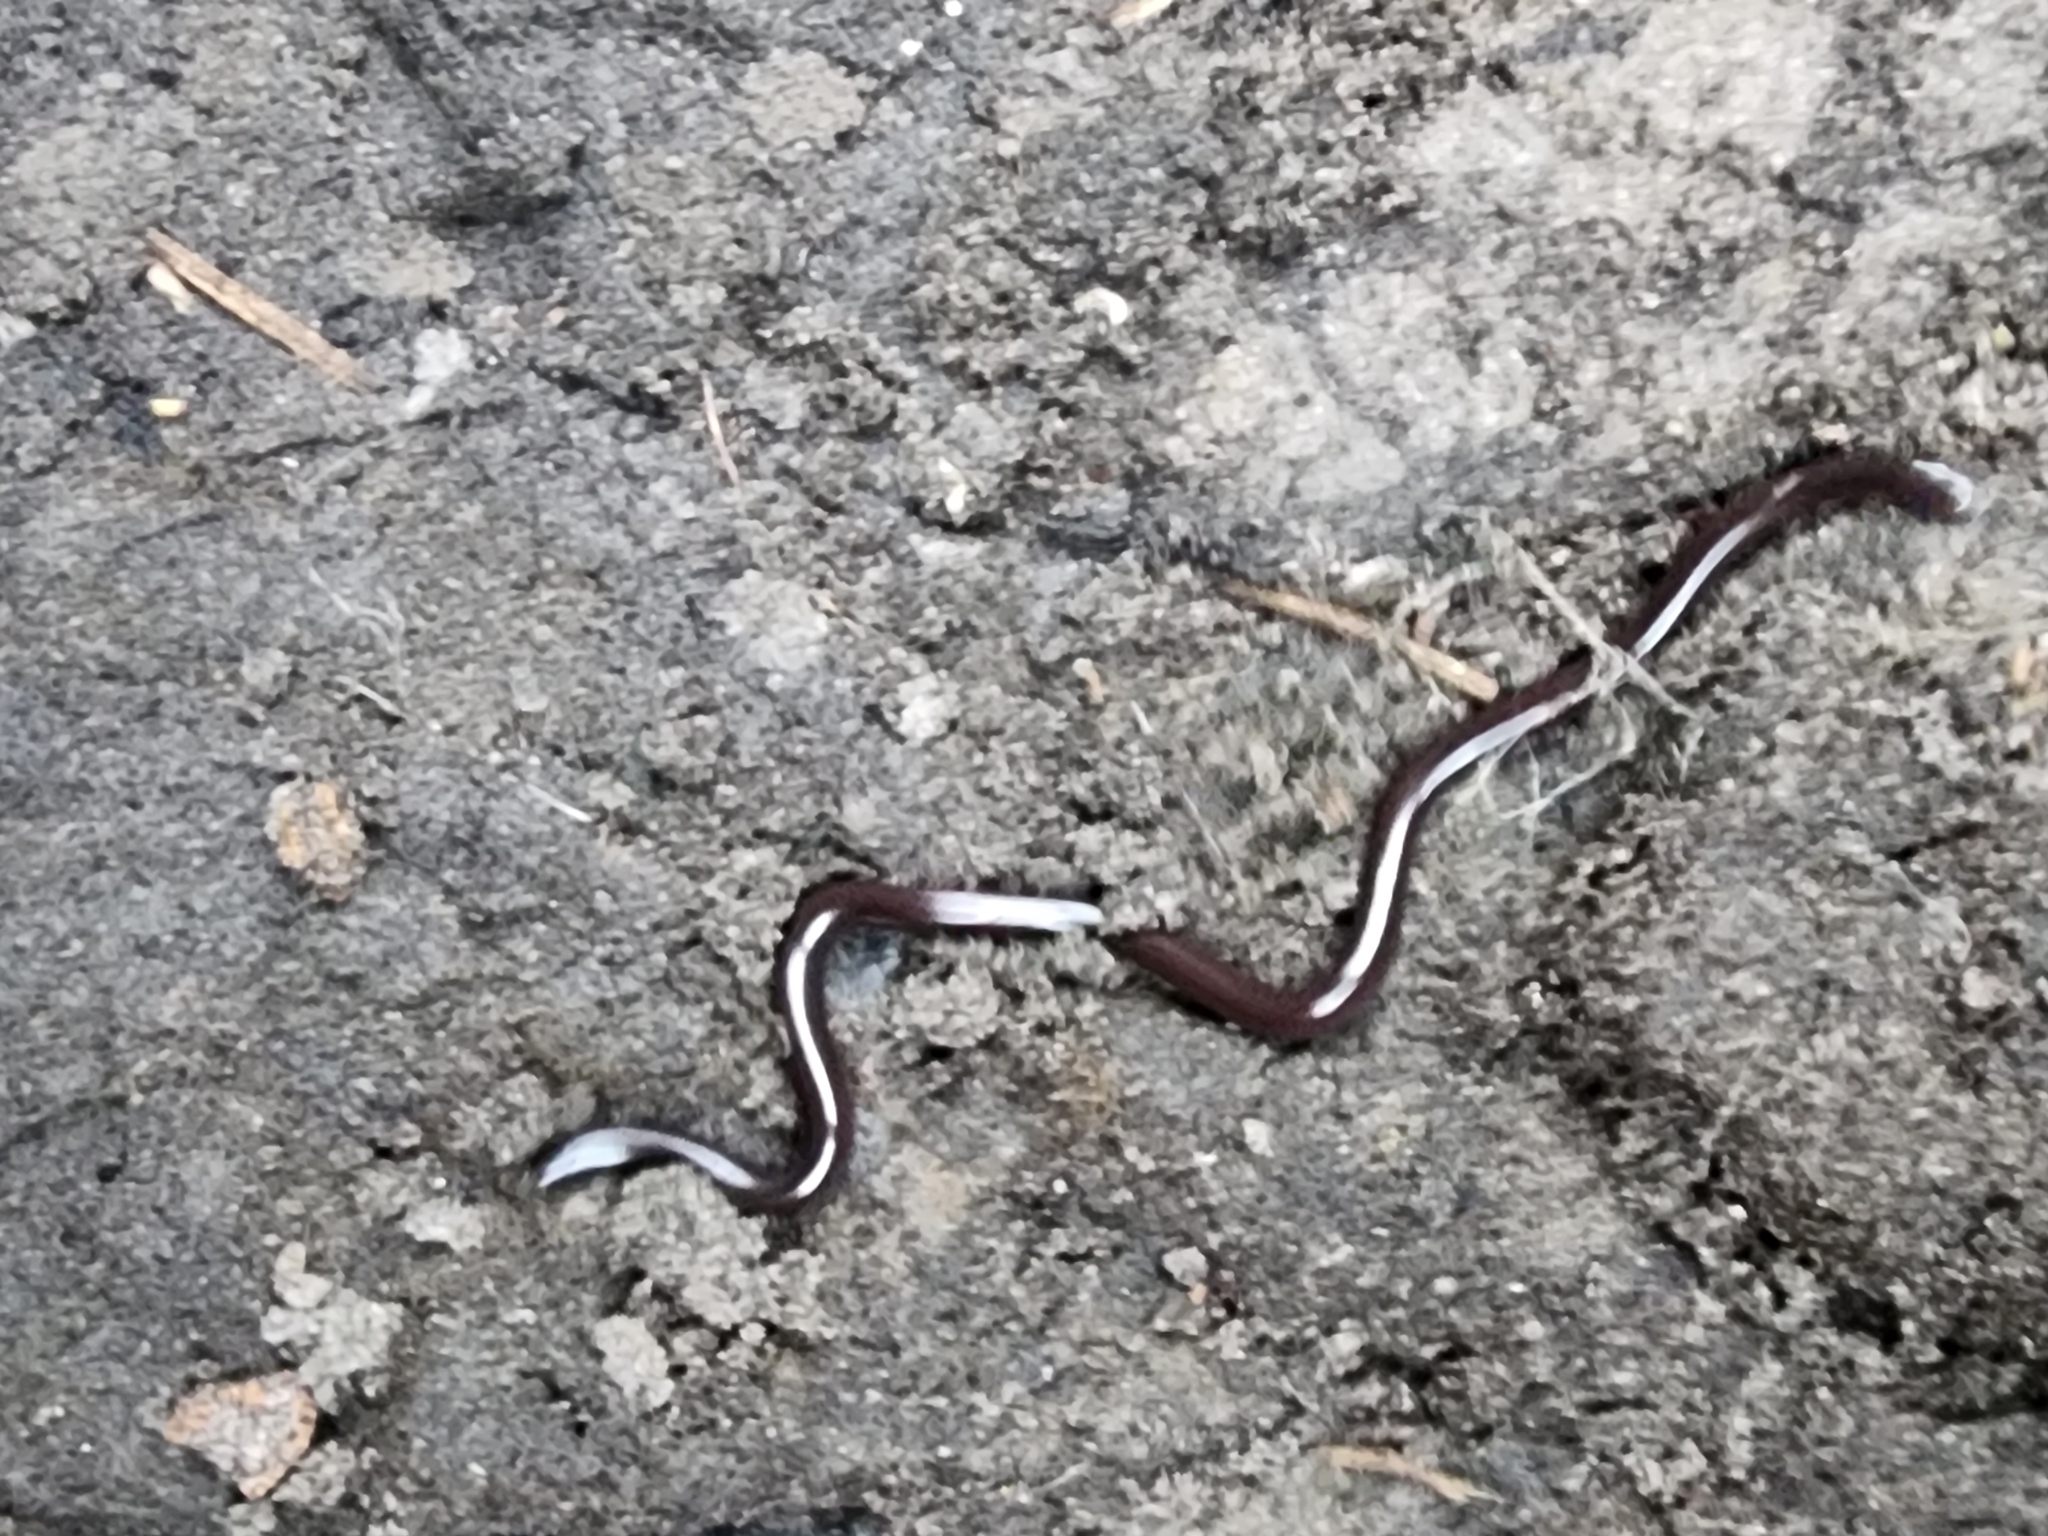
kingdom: Animalia
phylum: Chordata
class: Squamata
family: Typhlopidae
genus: Indotyphlops
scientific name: Indotyphlops braminus
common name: Brahminy blindsnake
